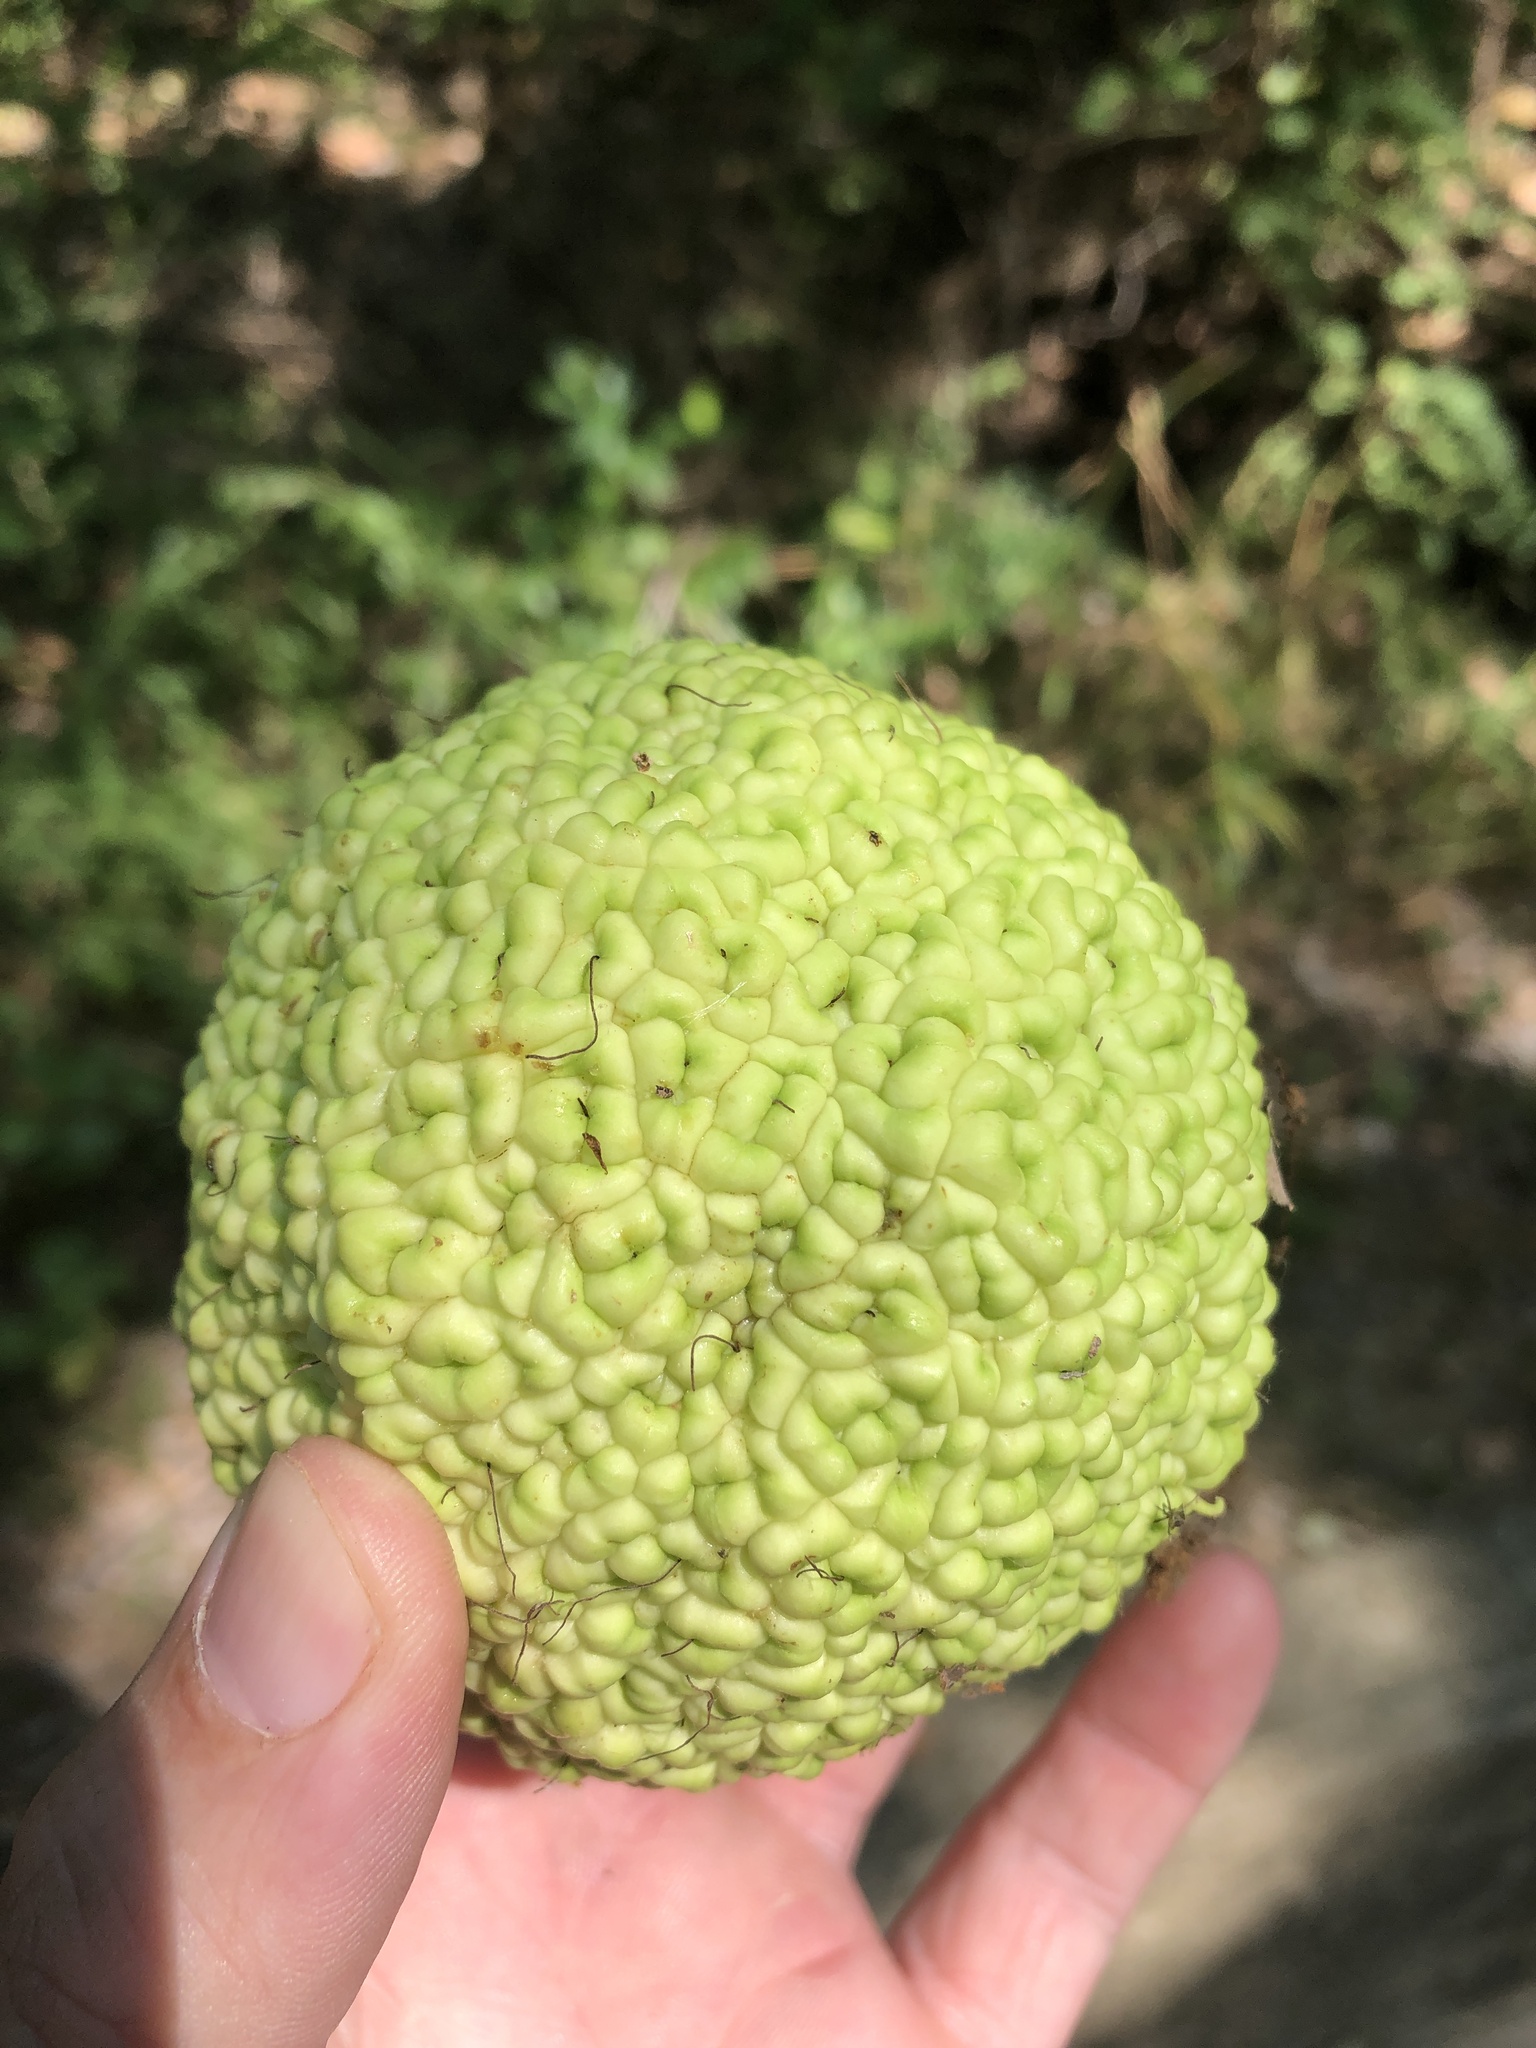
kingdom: Plantae
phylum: Tracheophyta
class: Magnoliopsida
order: Rosales
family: Moraceae
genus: Maclura
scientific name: Maclura pomifera
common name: Osage-orange
